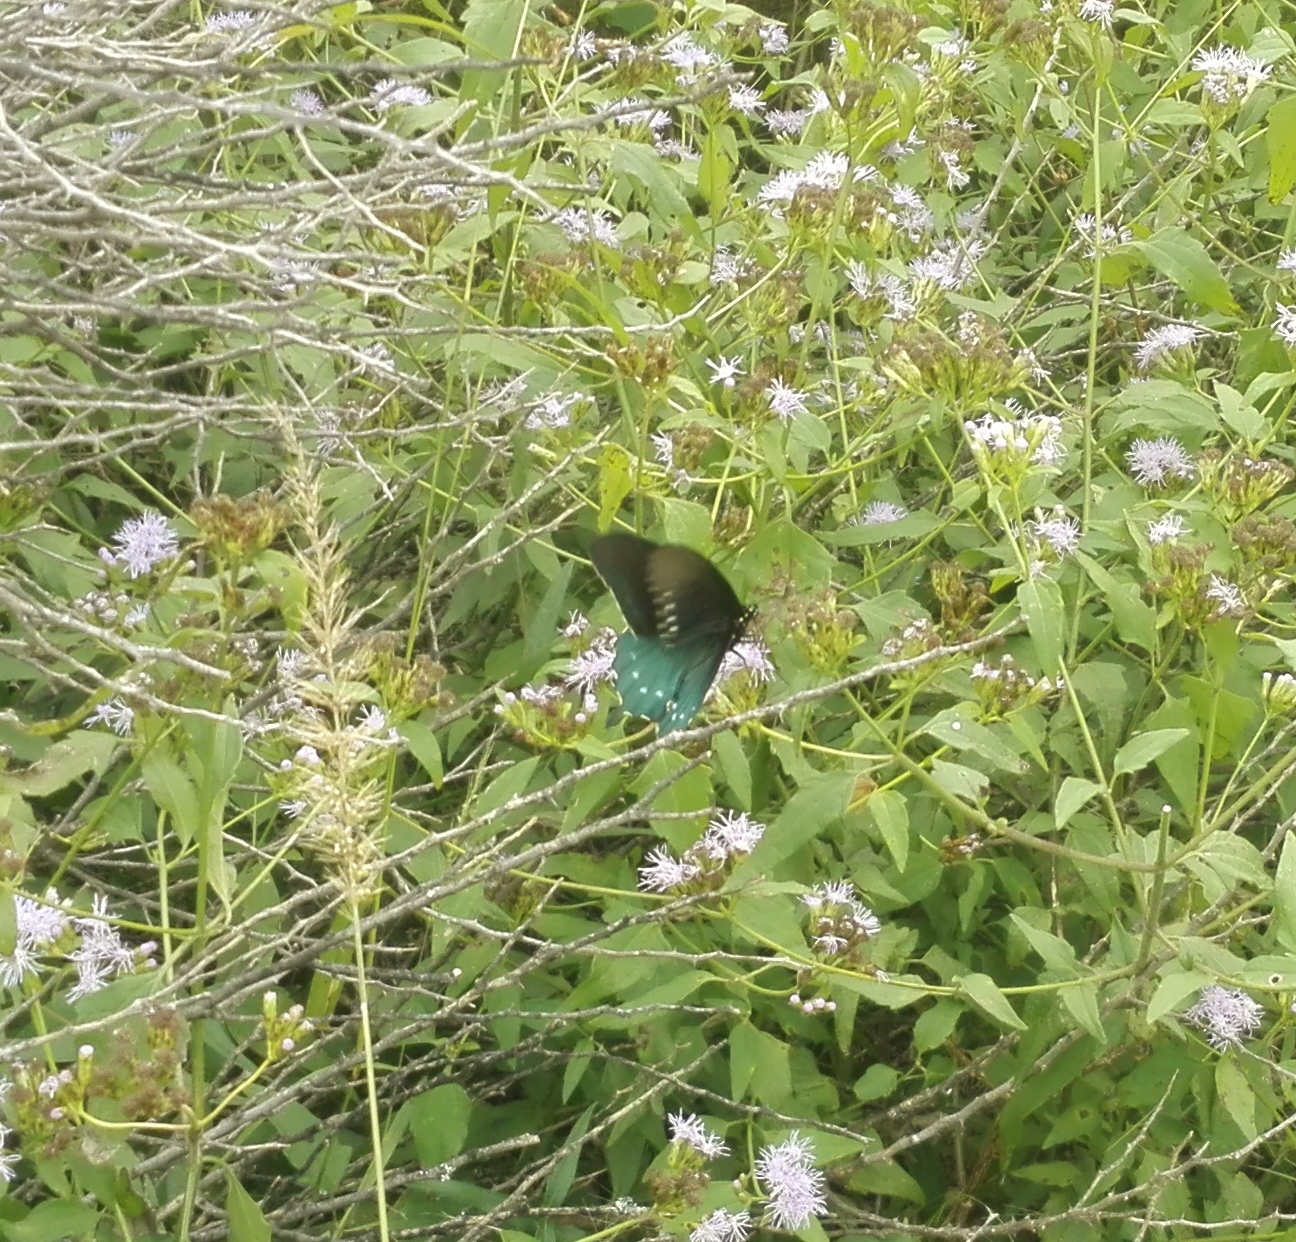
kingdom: Animalia
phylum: Arthropoda
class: Insecta
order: Lepidoptera
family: Papilionidae
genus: Battus
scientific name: Battus philenor
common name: Pipevine swallowtail
